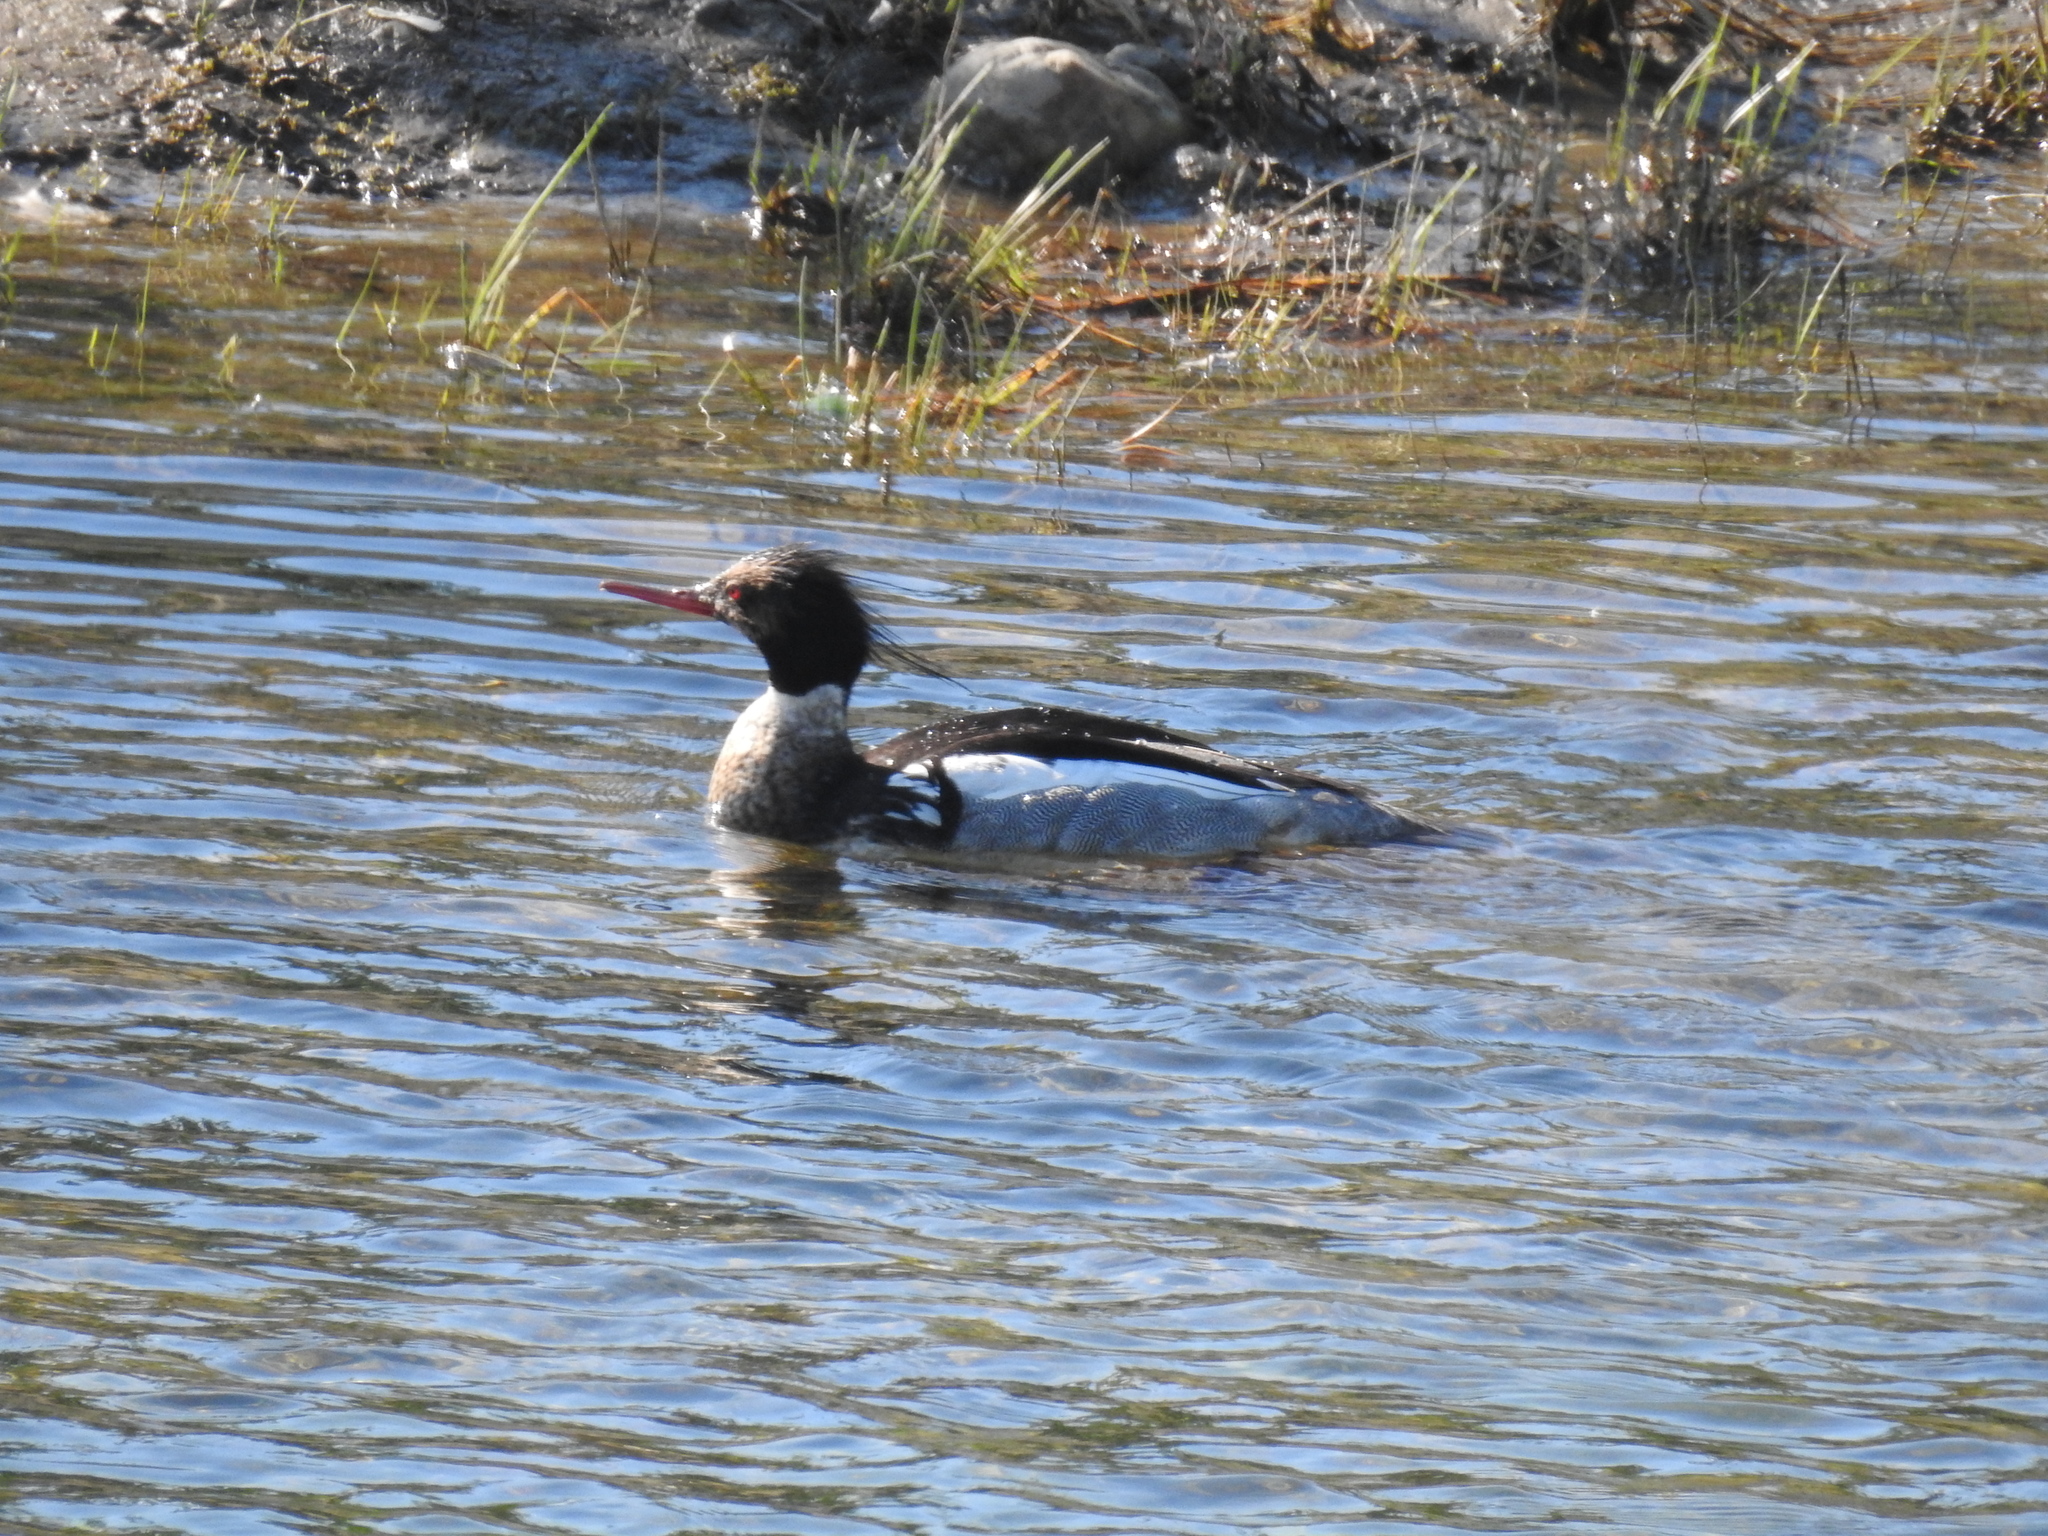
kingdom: Animalia
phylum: Chordata
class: Aves
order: Anseriformes
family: Anatidae
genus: Mergus
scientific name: Mergus serrator
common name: Red-breasted merganser
